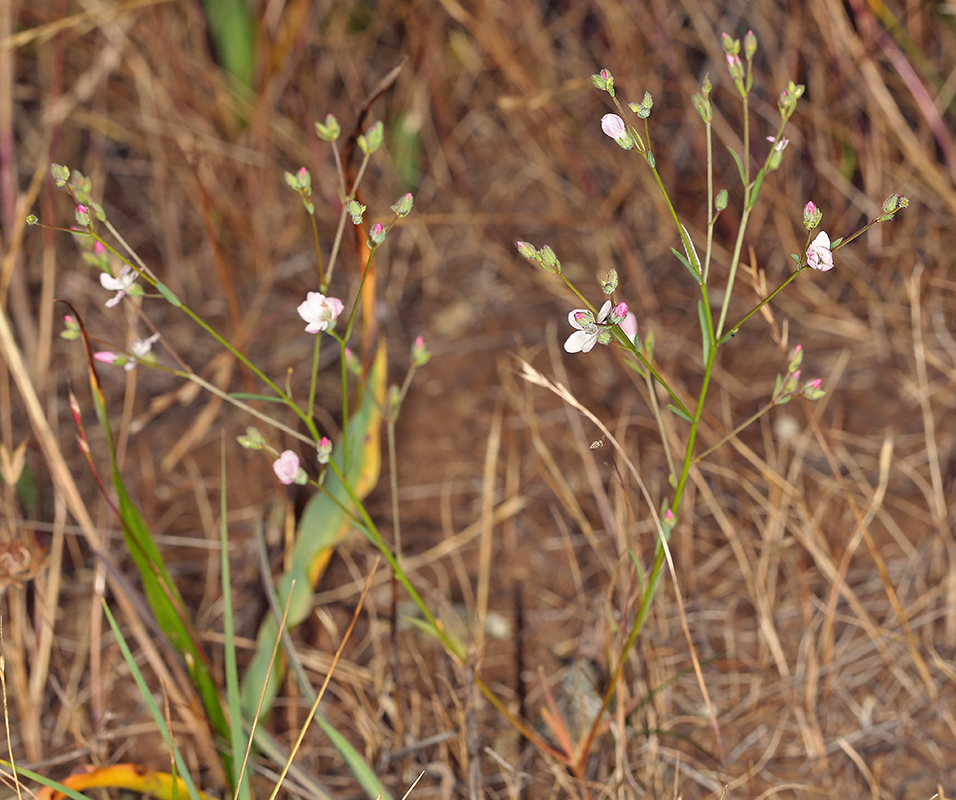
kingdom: Plantae
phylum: Tracheophyta
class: Magnoliopsida
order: Malpighiales
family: Linaceae
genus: Hesperolinon
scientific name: Hesperolinon congestum
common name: Marin dwarf-flax
